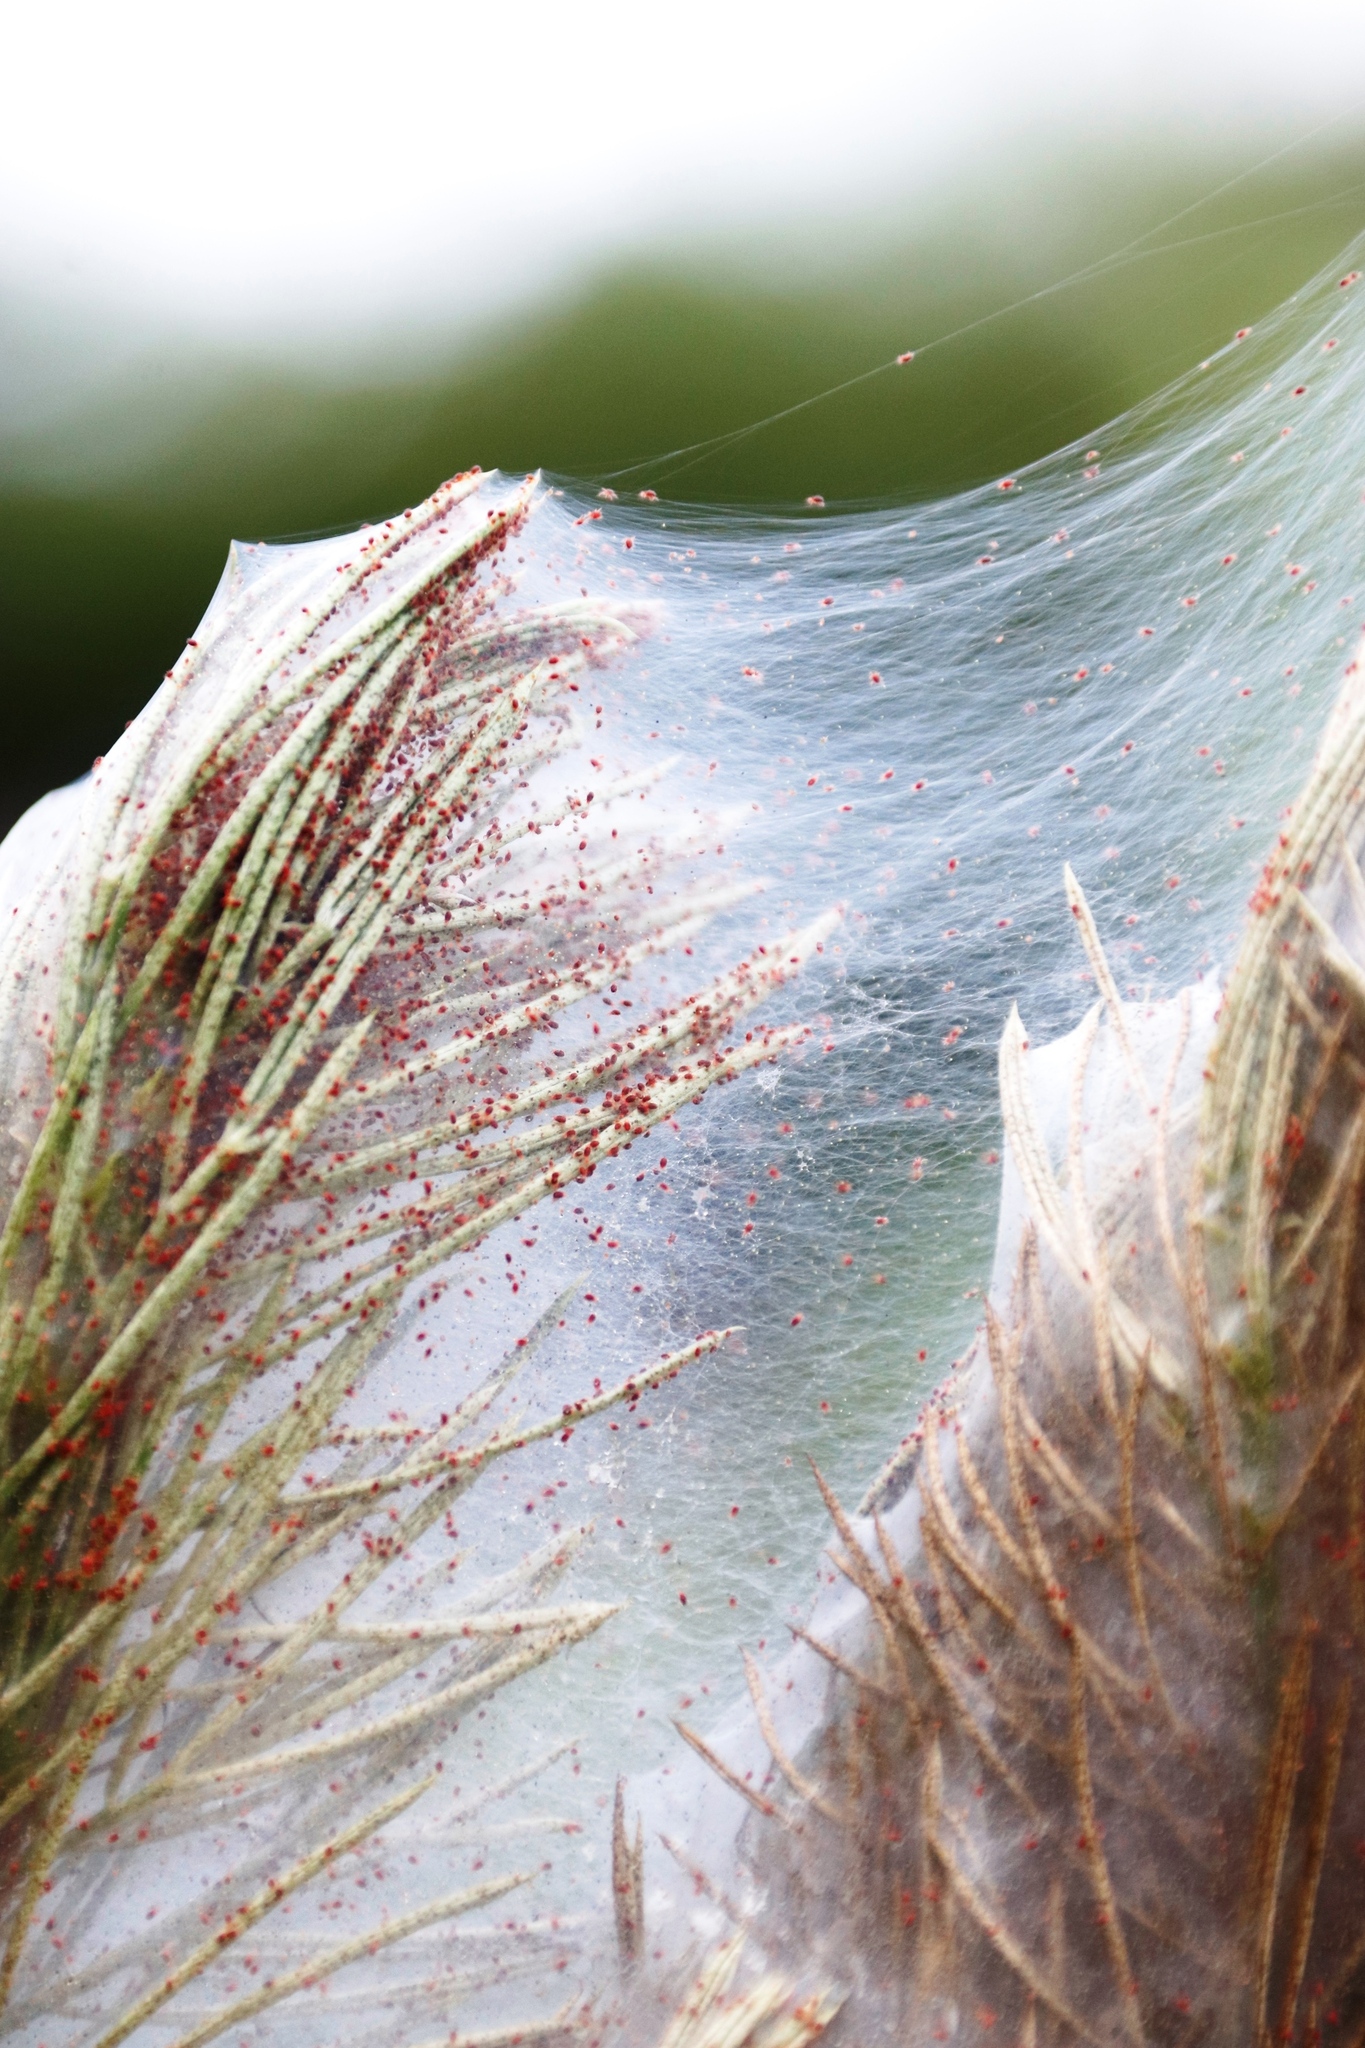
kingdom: Plantae
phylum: Tracheophyta
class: Magnoliopsida
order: Fabales
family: Fabaceae
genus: Psoralea
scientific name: Psoralea pinnata
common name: African scurfpea
